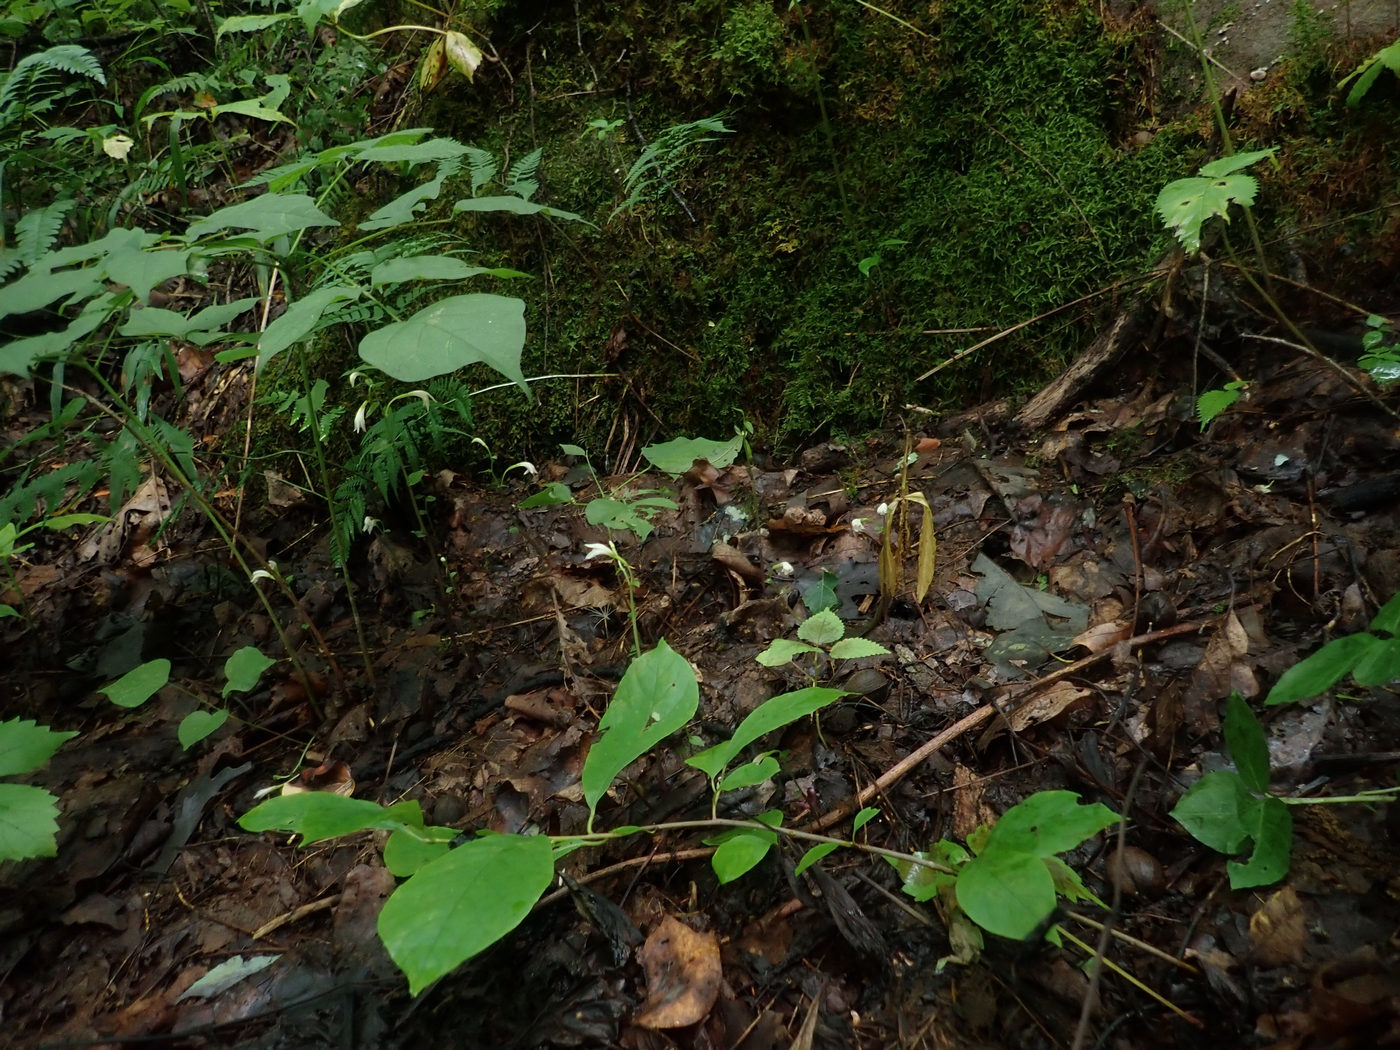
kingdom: Plantae
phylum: Tracheophyta
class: Liliopsida
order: Asparagales
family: Orchidaceae
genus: Triphora
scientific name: Triphora trianthophoros
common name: Three birds orchid
